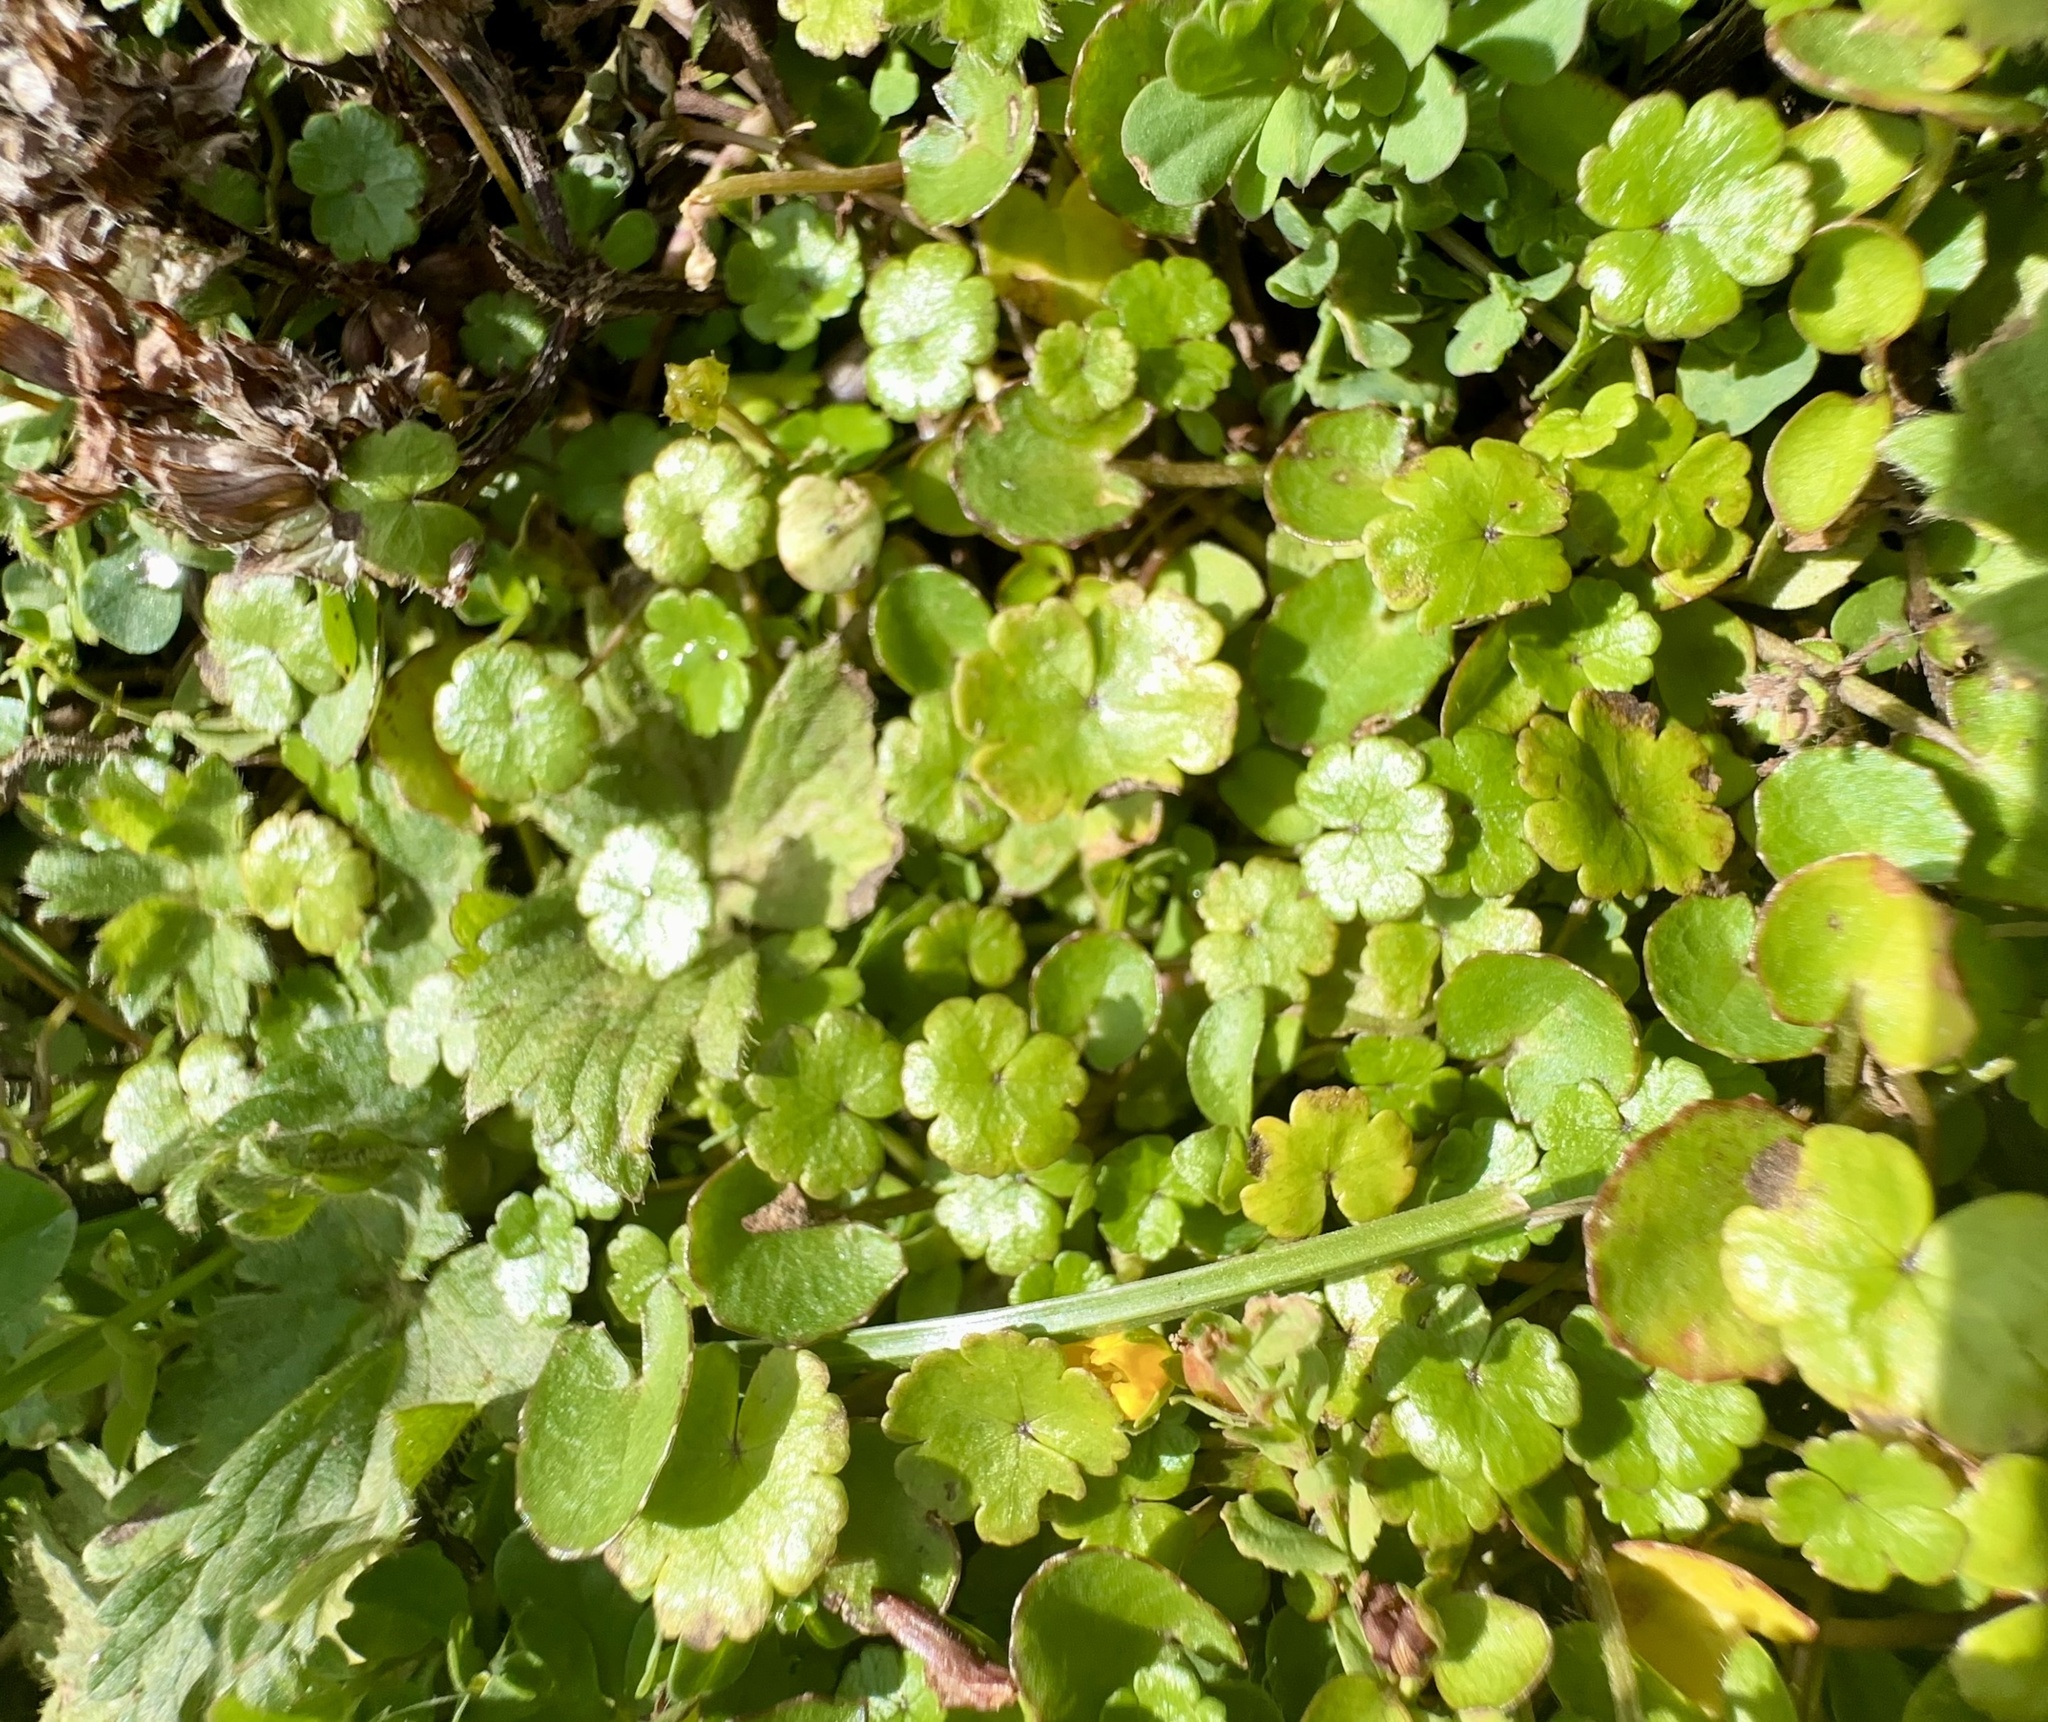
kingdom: Plantae
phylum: Tracheophyta
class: Magnoliopsida
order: Apiales
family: Araliaceae
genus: Hydrocotyle
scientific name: Hydrocotyle novae-zeelandiae
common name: New zealand pennywort
